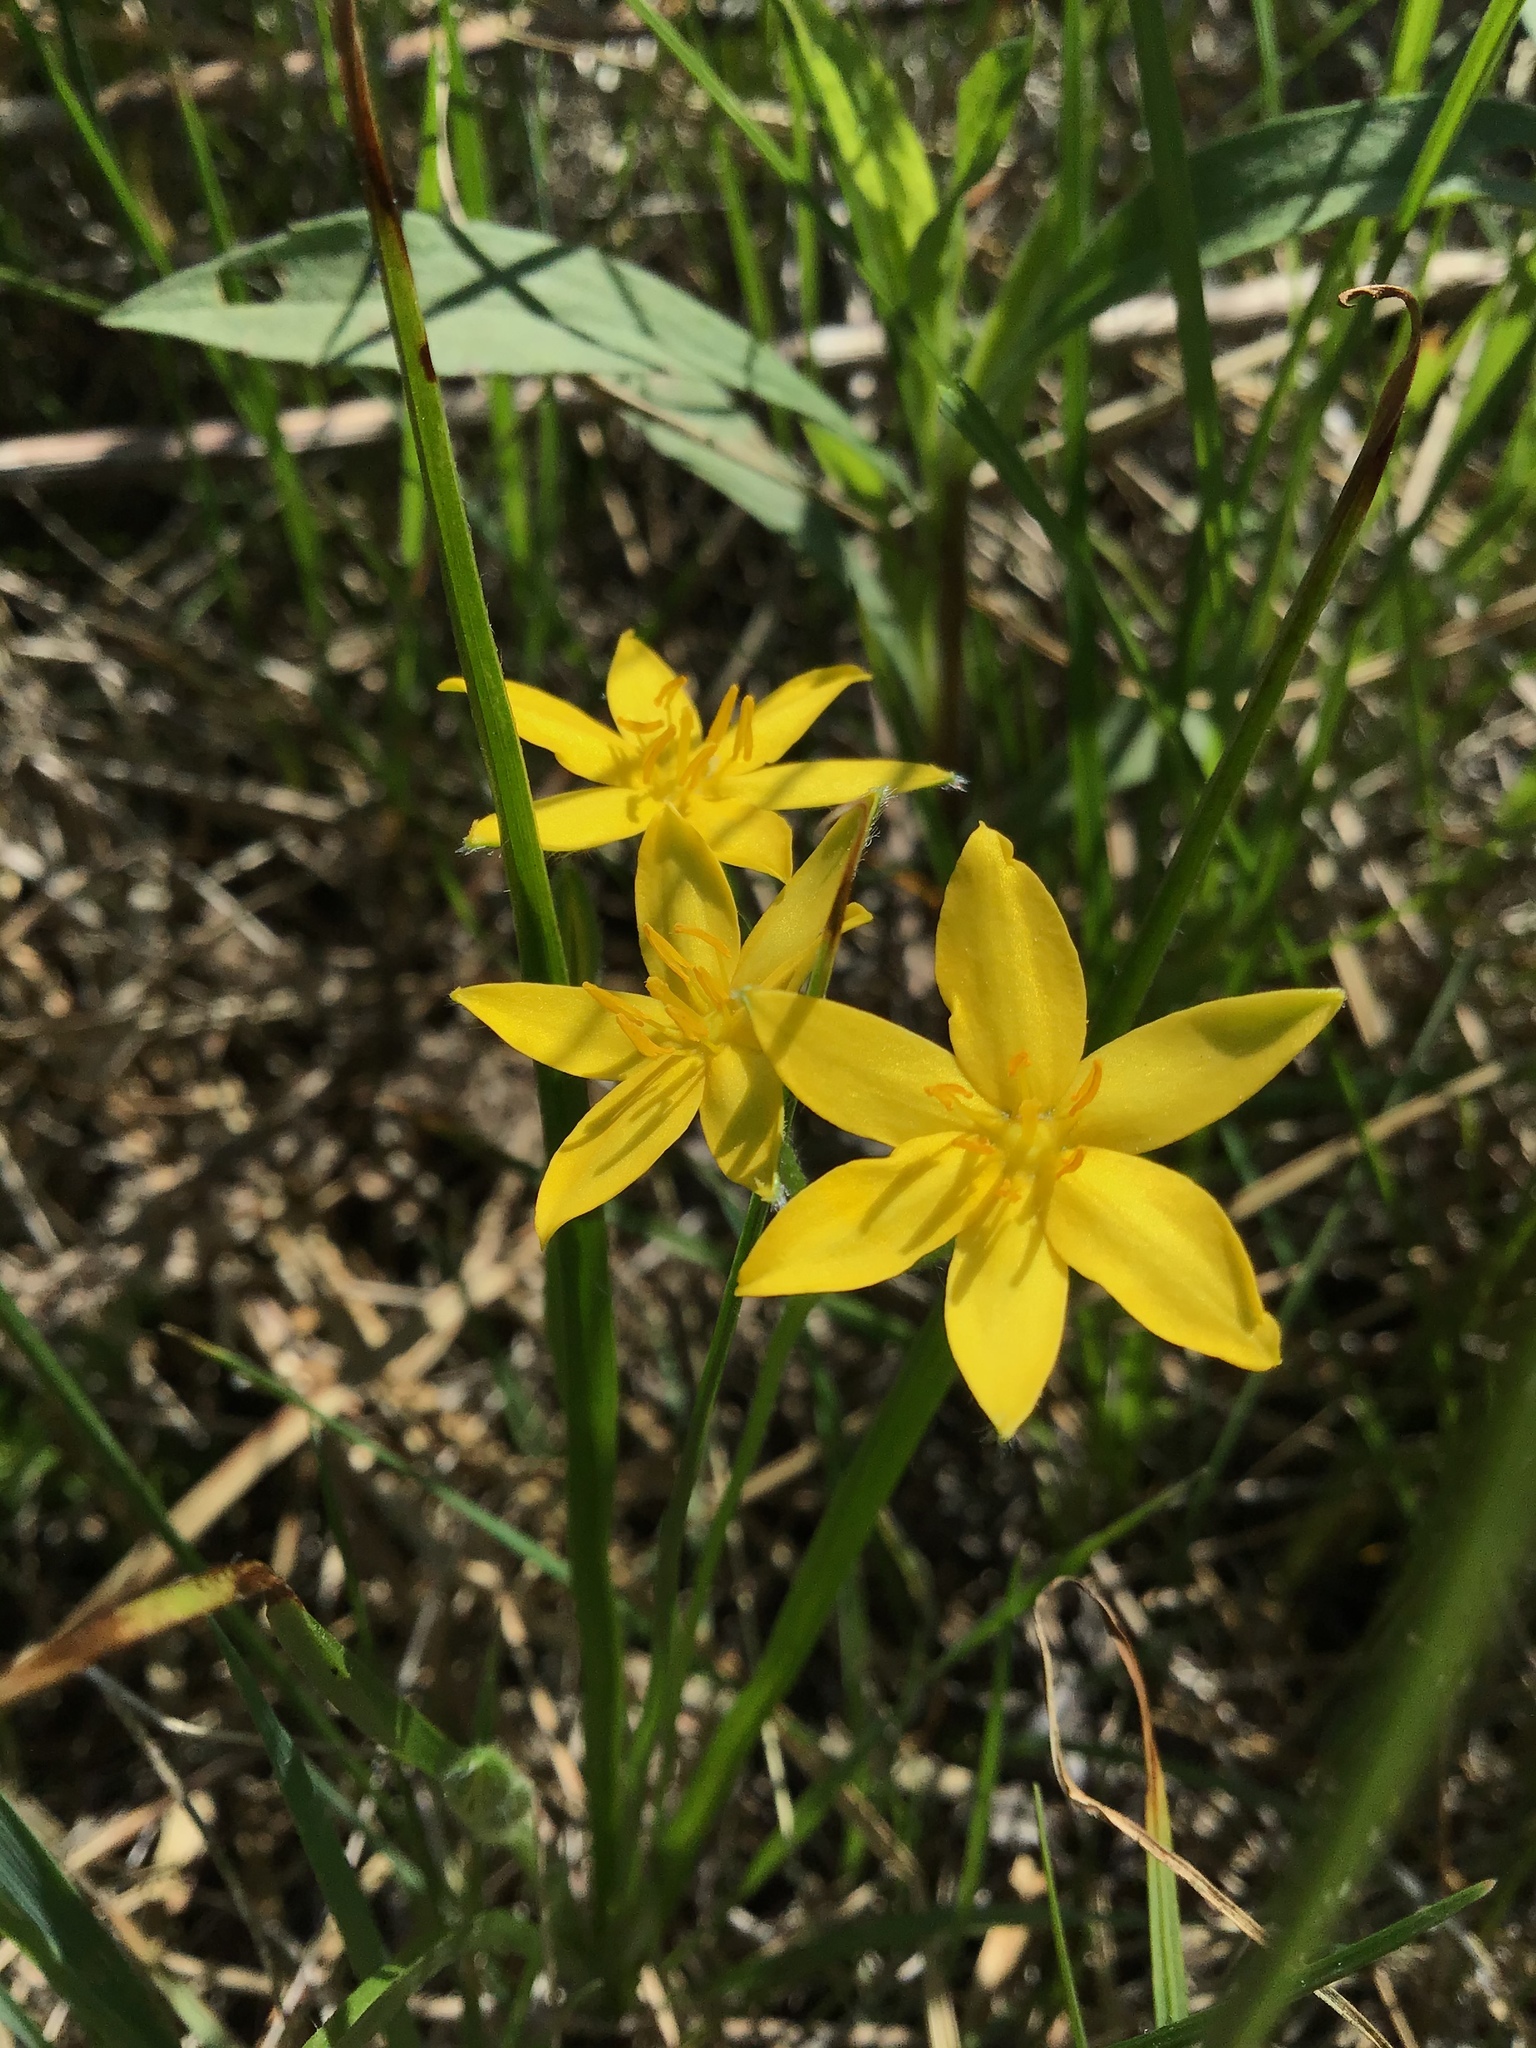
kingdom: Plantae
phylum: Tracheophyta
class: Liliopsida
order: Asparagales
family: Hypoxidaceae
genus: Hypoxis
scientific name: Hypoxis hirsuta
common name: Common goldstar
